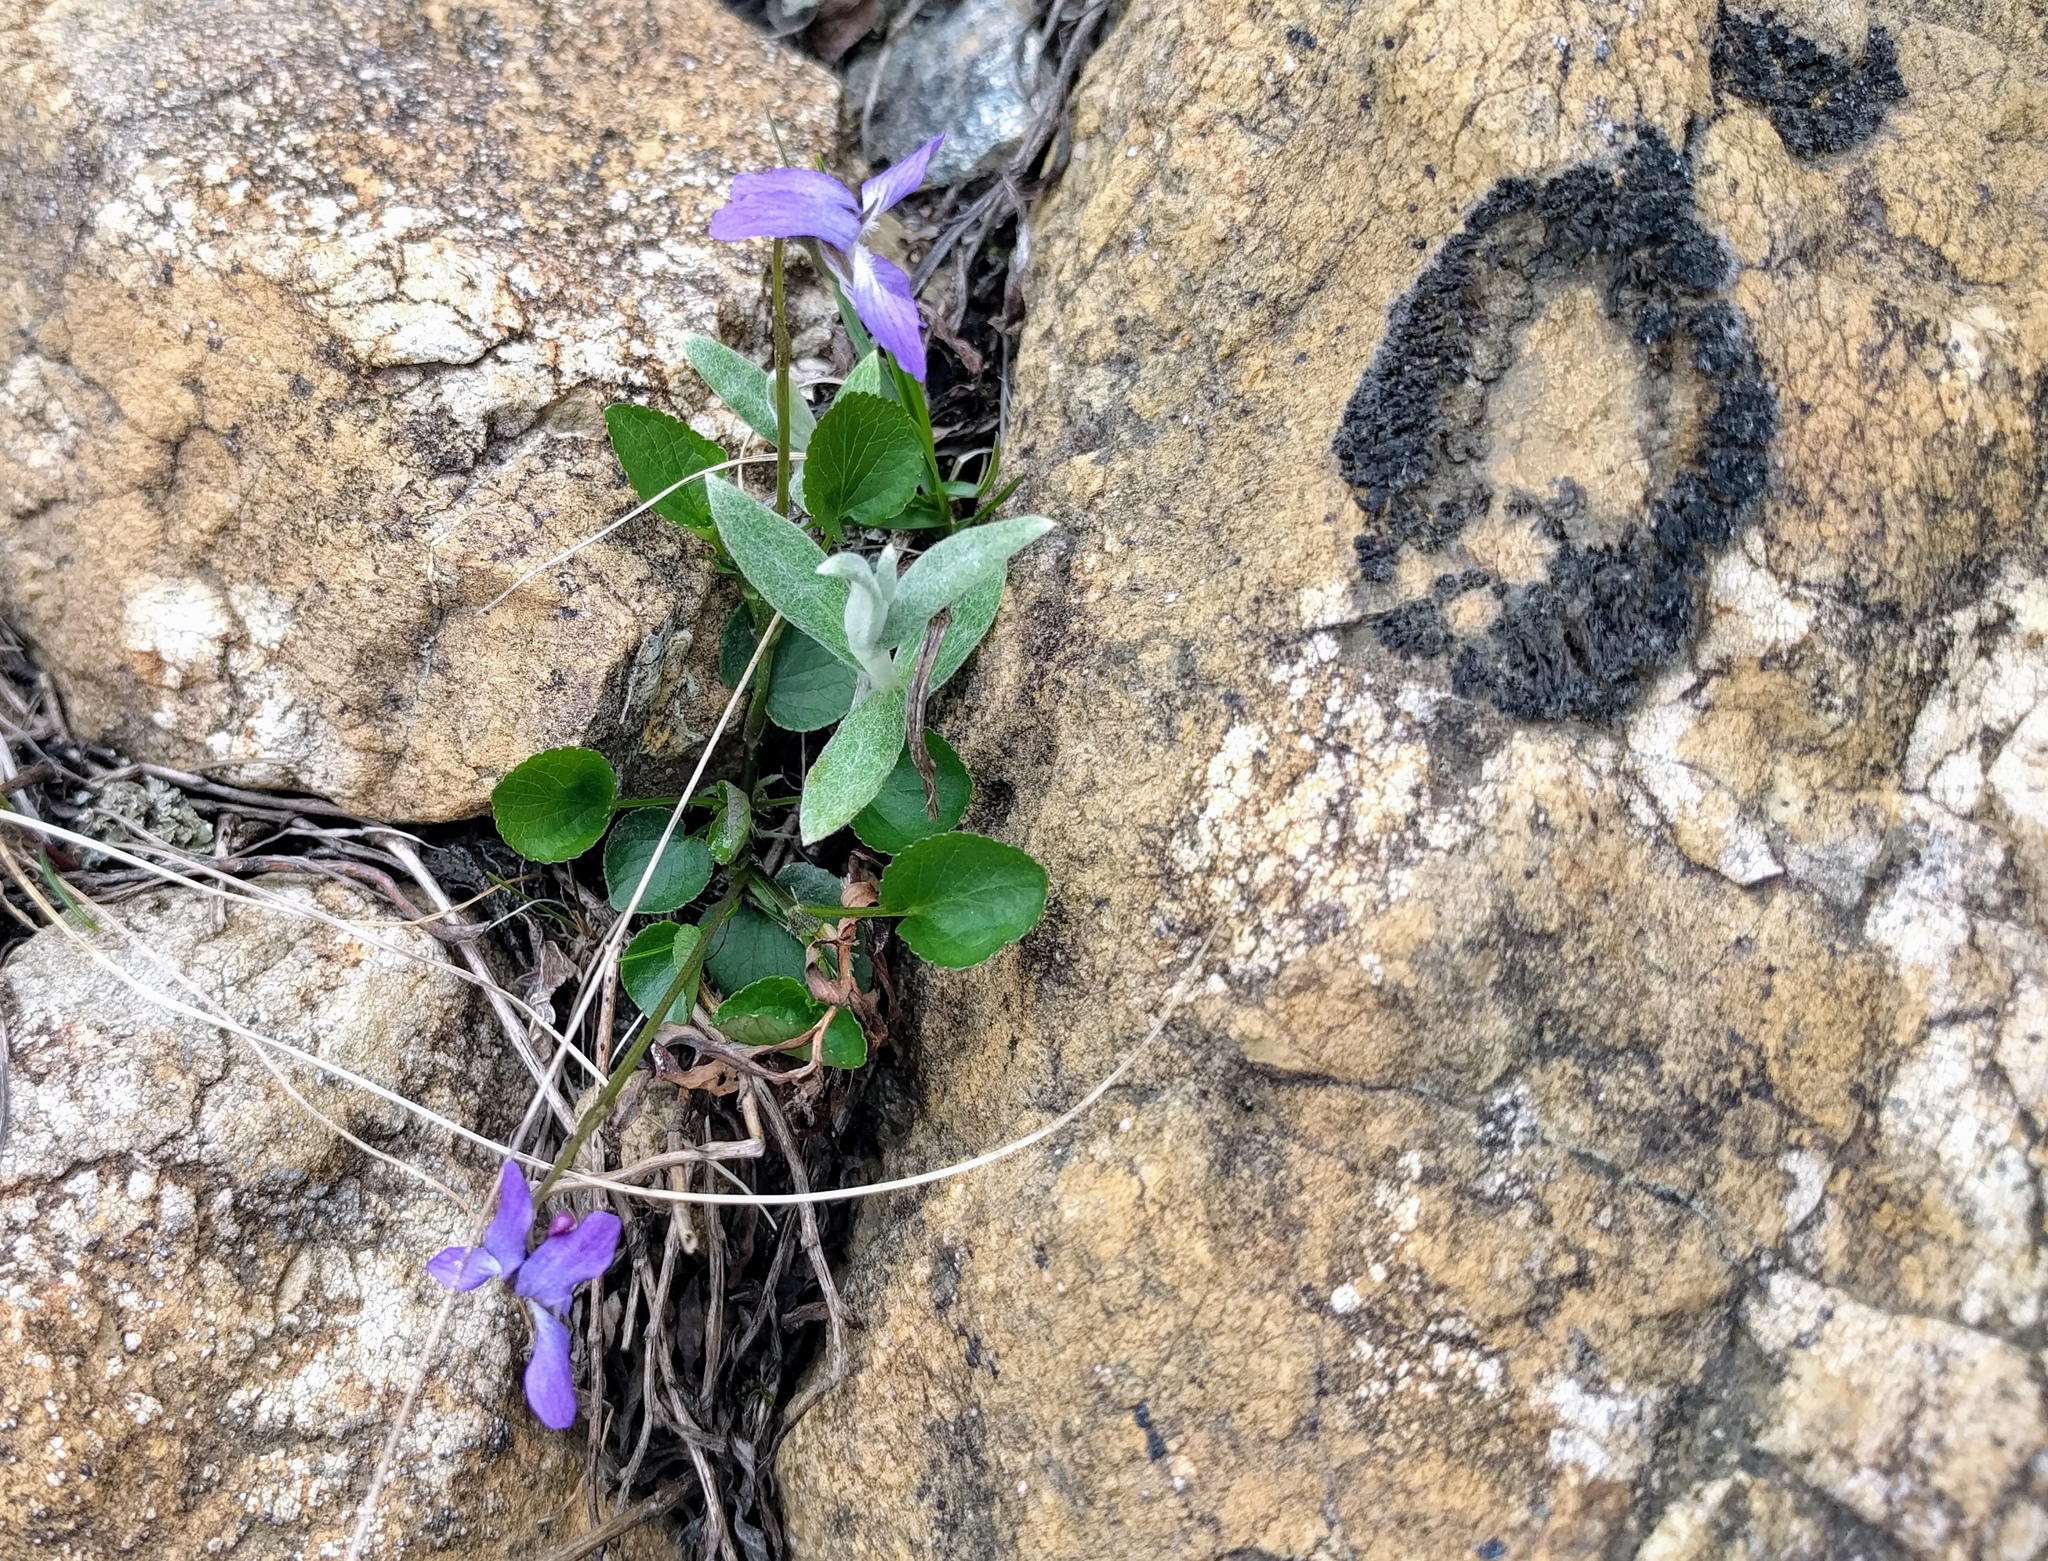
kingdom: Plantae
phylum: Tracheophyta
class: Magnoliopsida
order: Malpighiales
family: Violaceae
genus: Viola
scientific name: Viola adunca
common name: Sand violet
